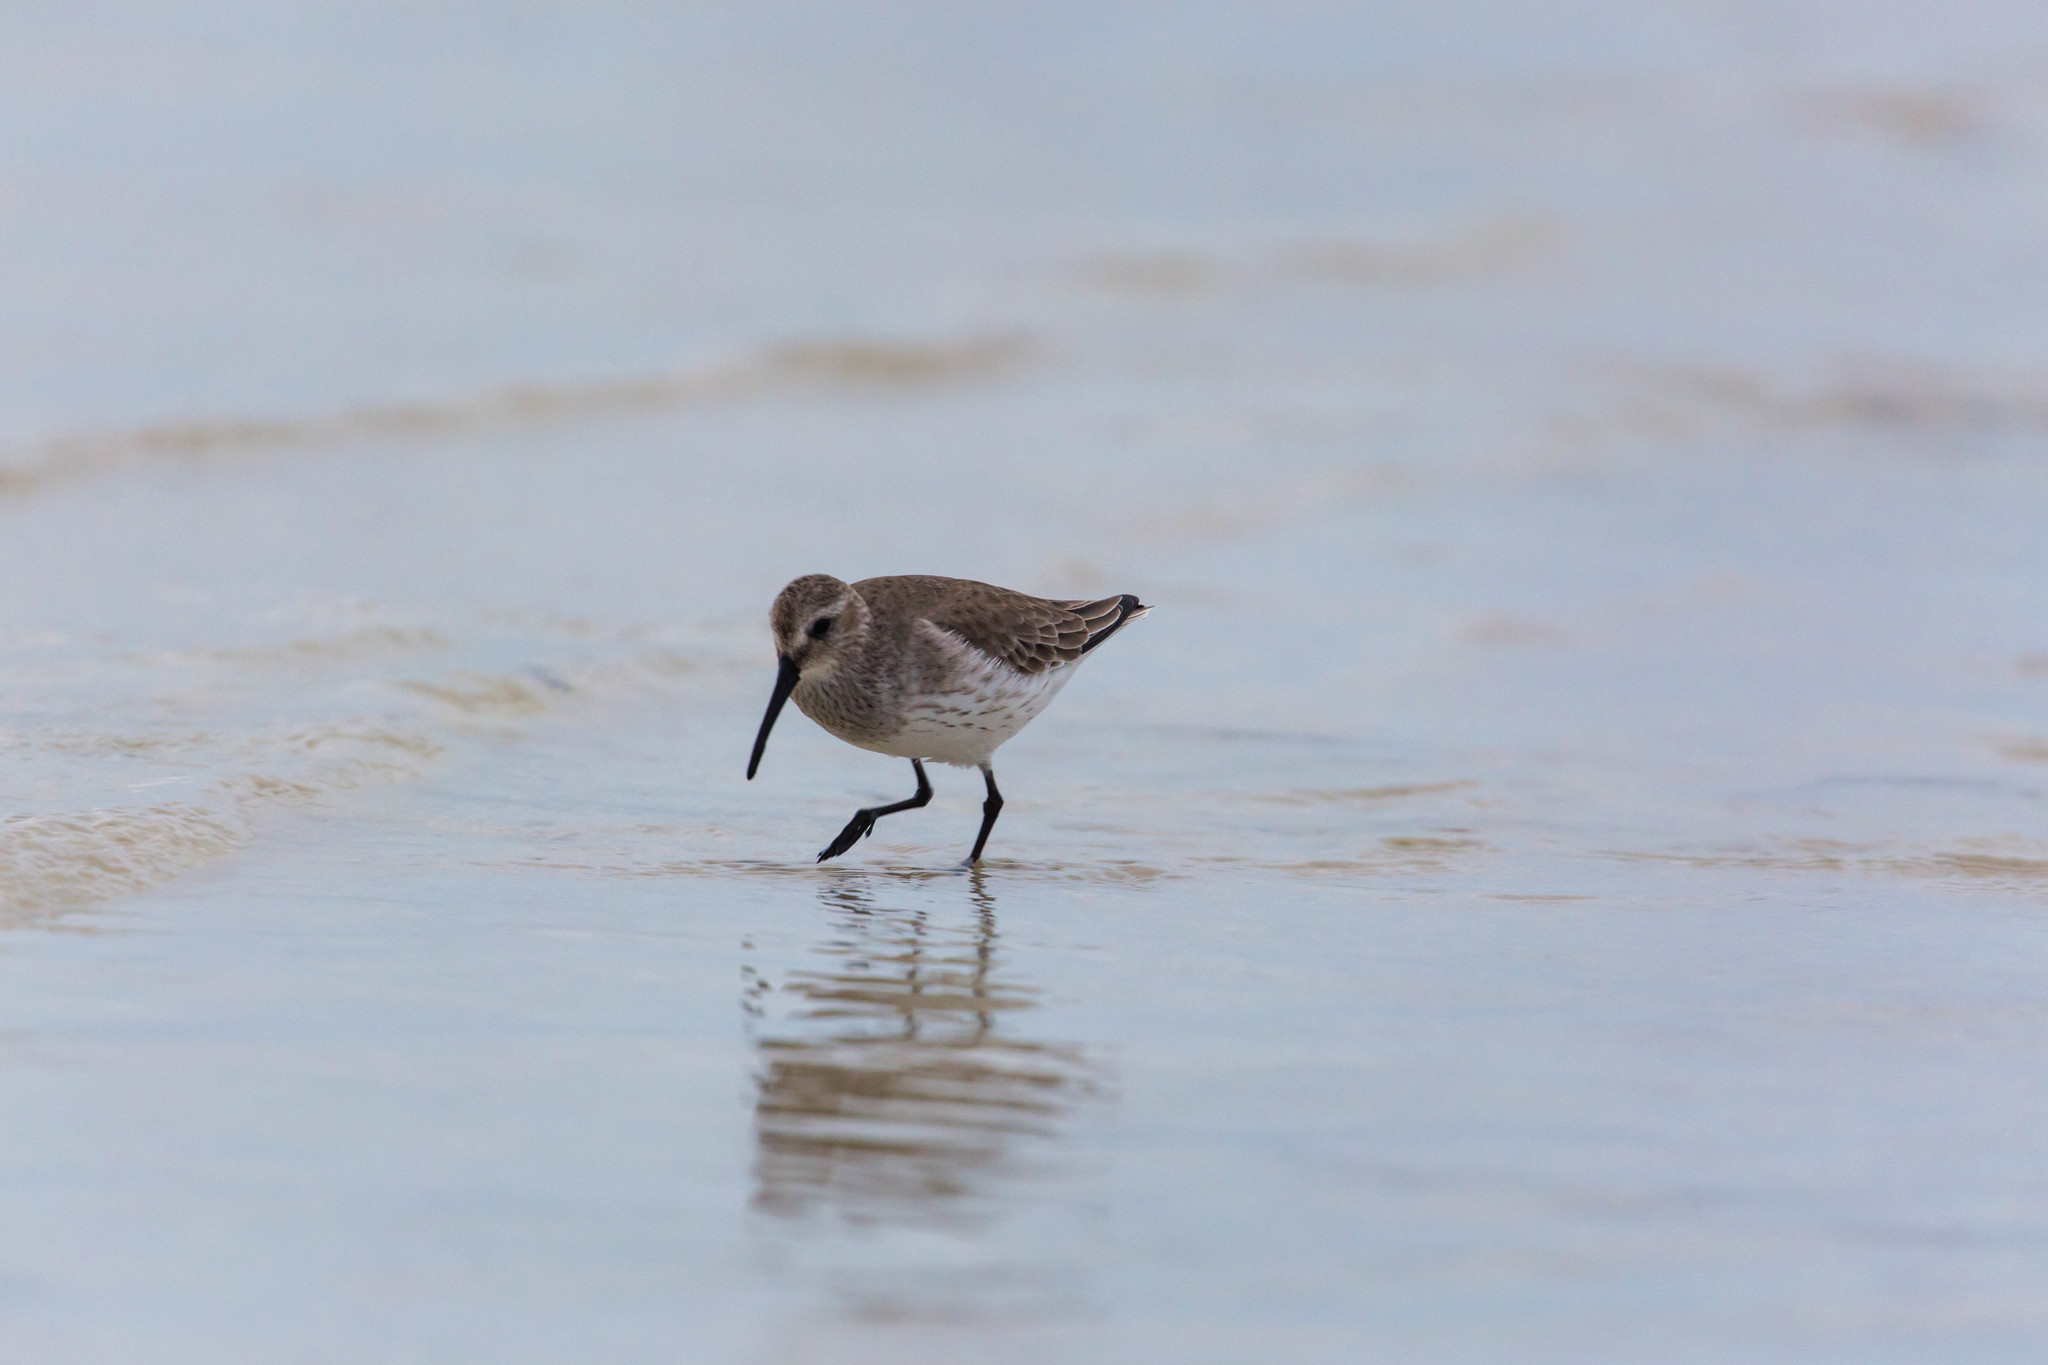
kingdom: Animalia
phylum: Chordata
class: Aves
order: Charadriiformes
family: Scolopacidae
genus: Calidris
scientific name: Calidris alpina
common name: Dunlin
